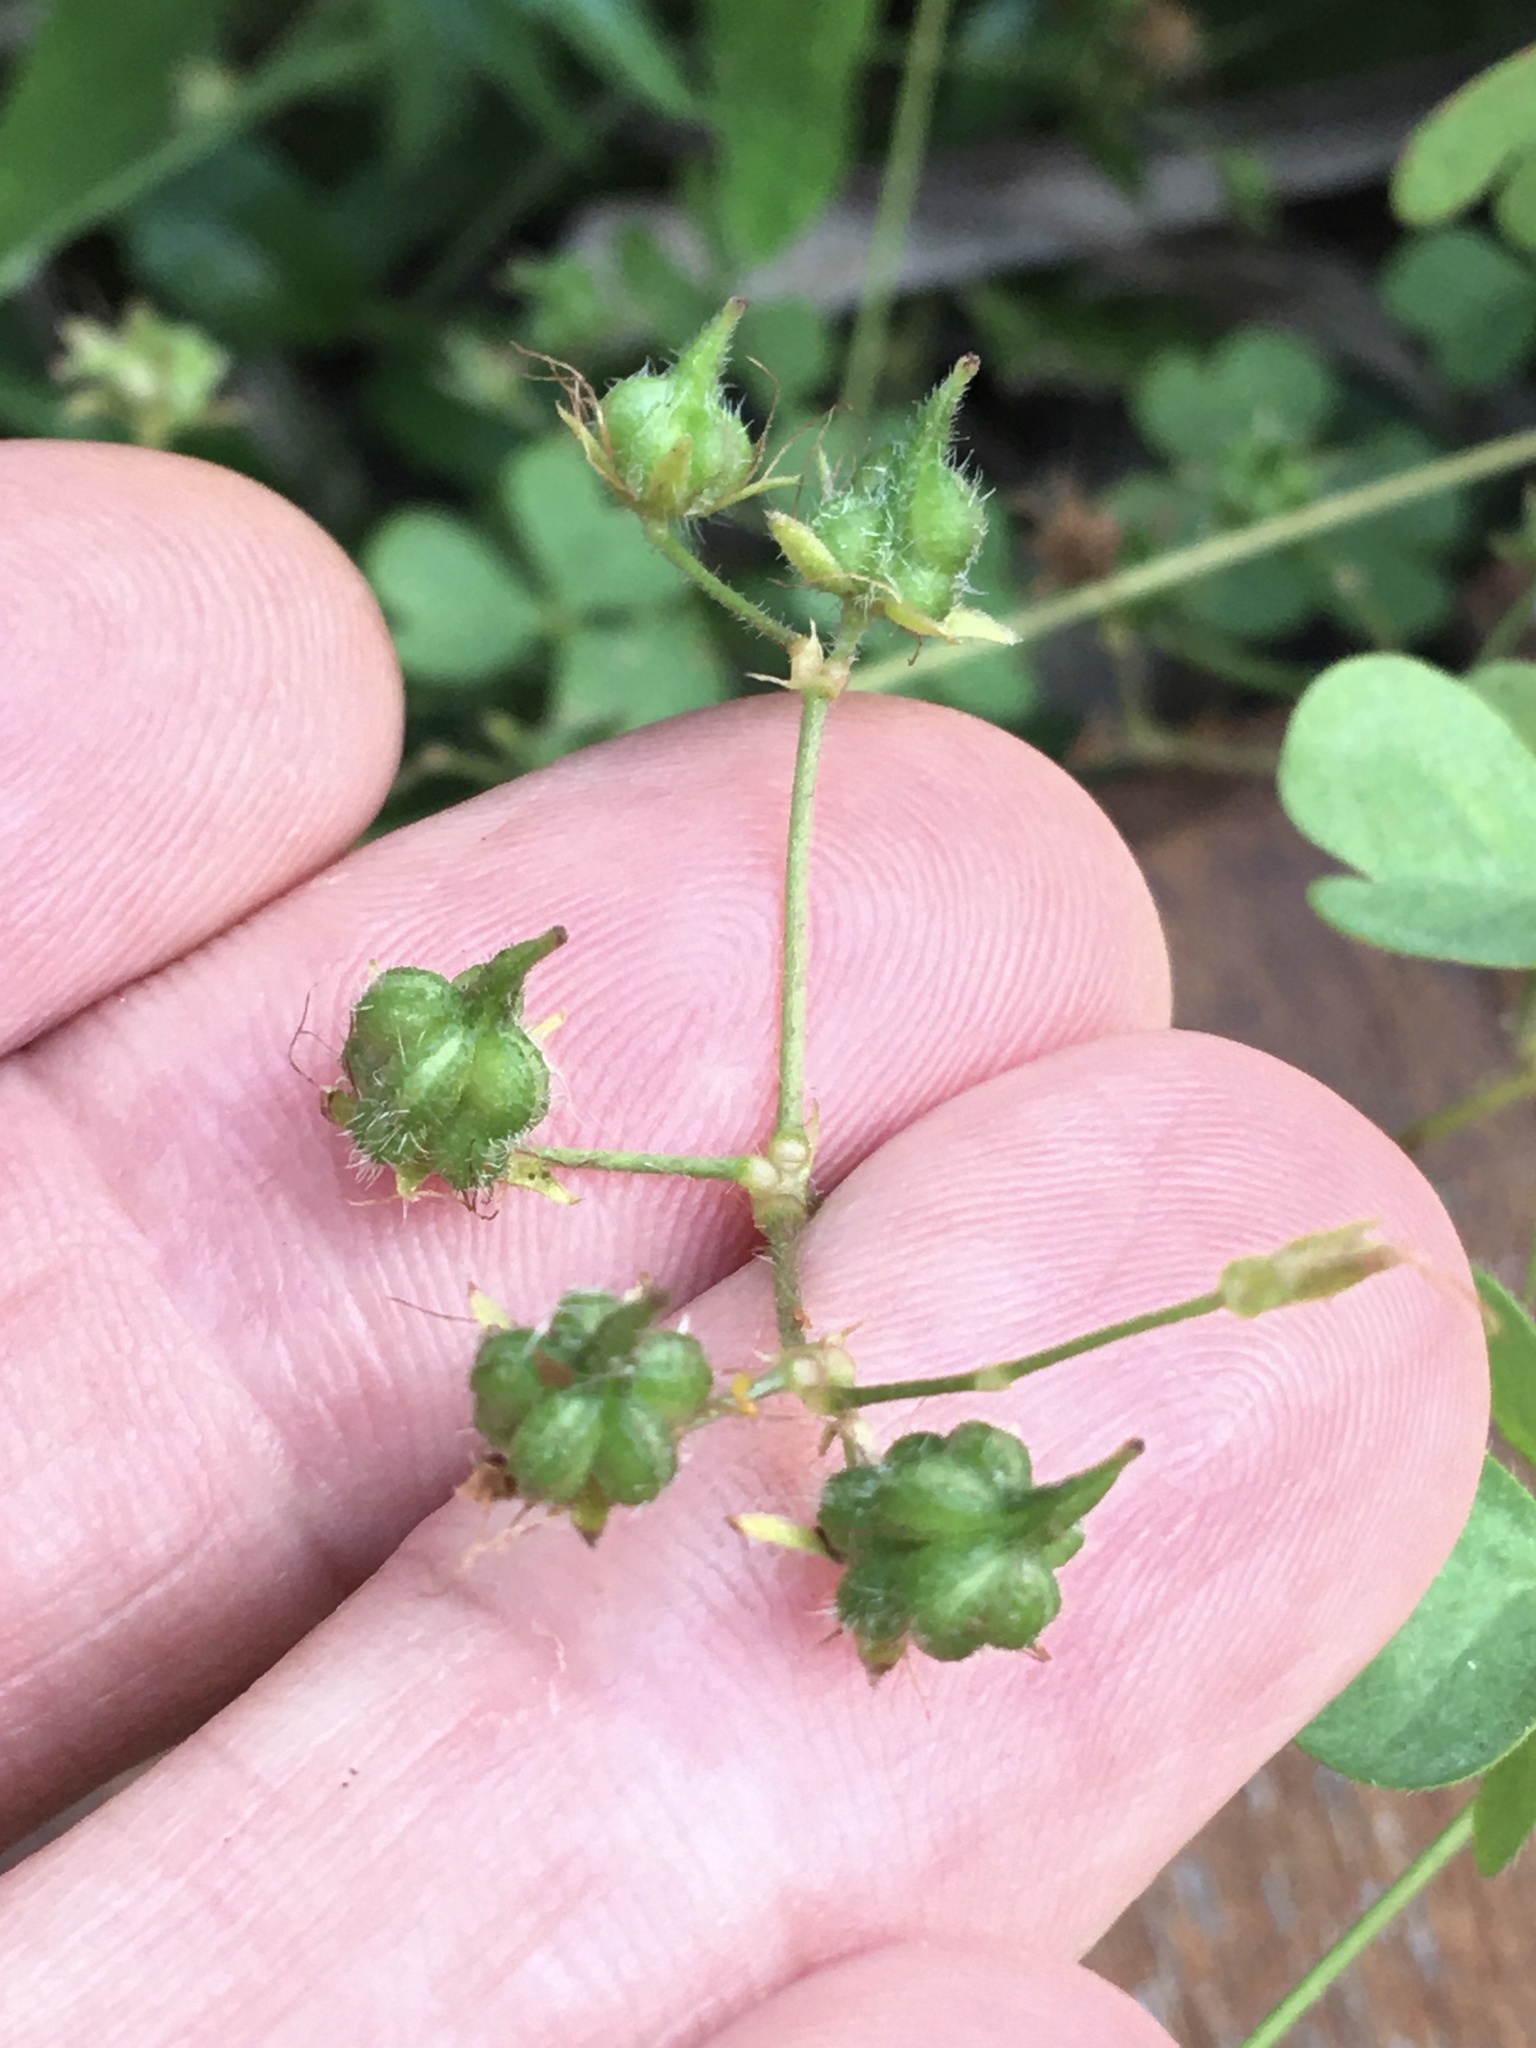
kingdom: Plantae
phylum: Tracheophyta
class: Magnoliopsida
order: Oxalidales
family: Oxalidaceae
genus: Oxalis
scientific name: Oxalis niederleinii
